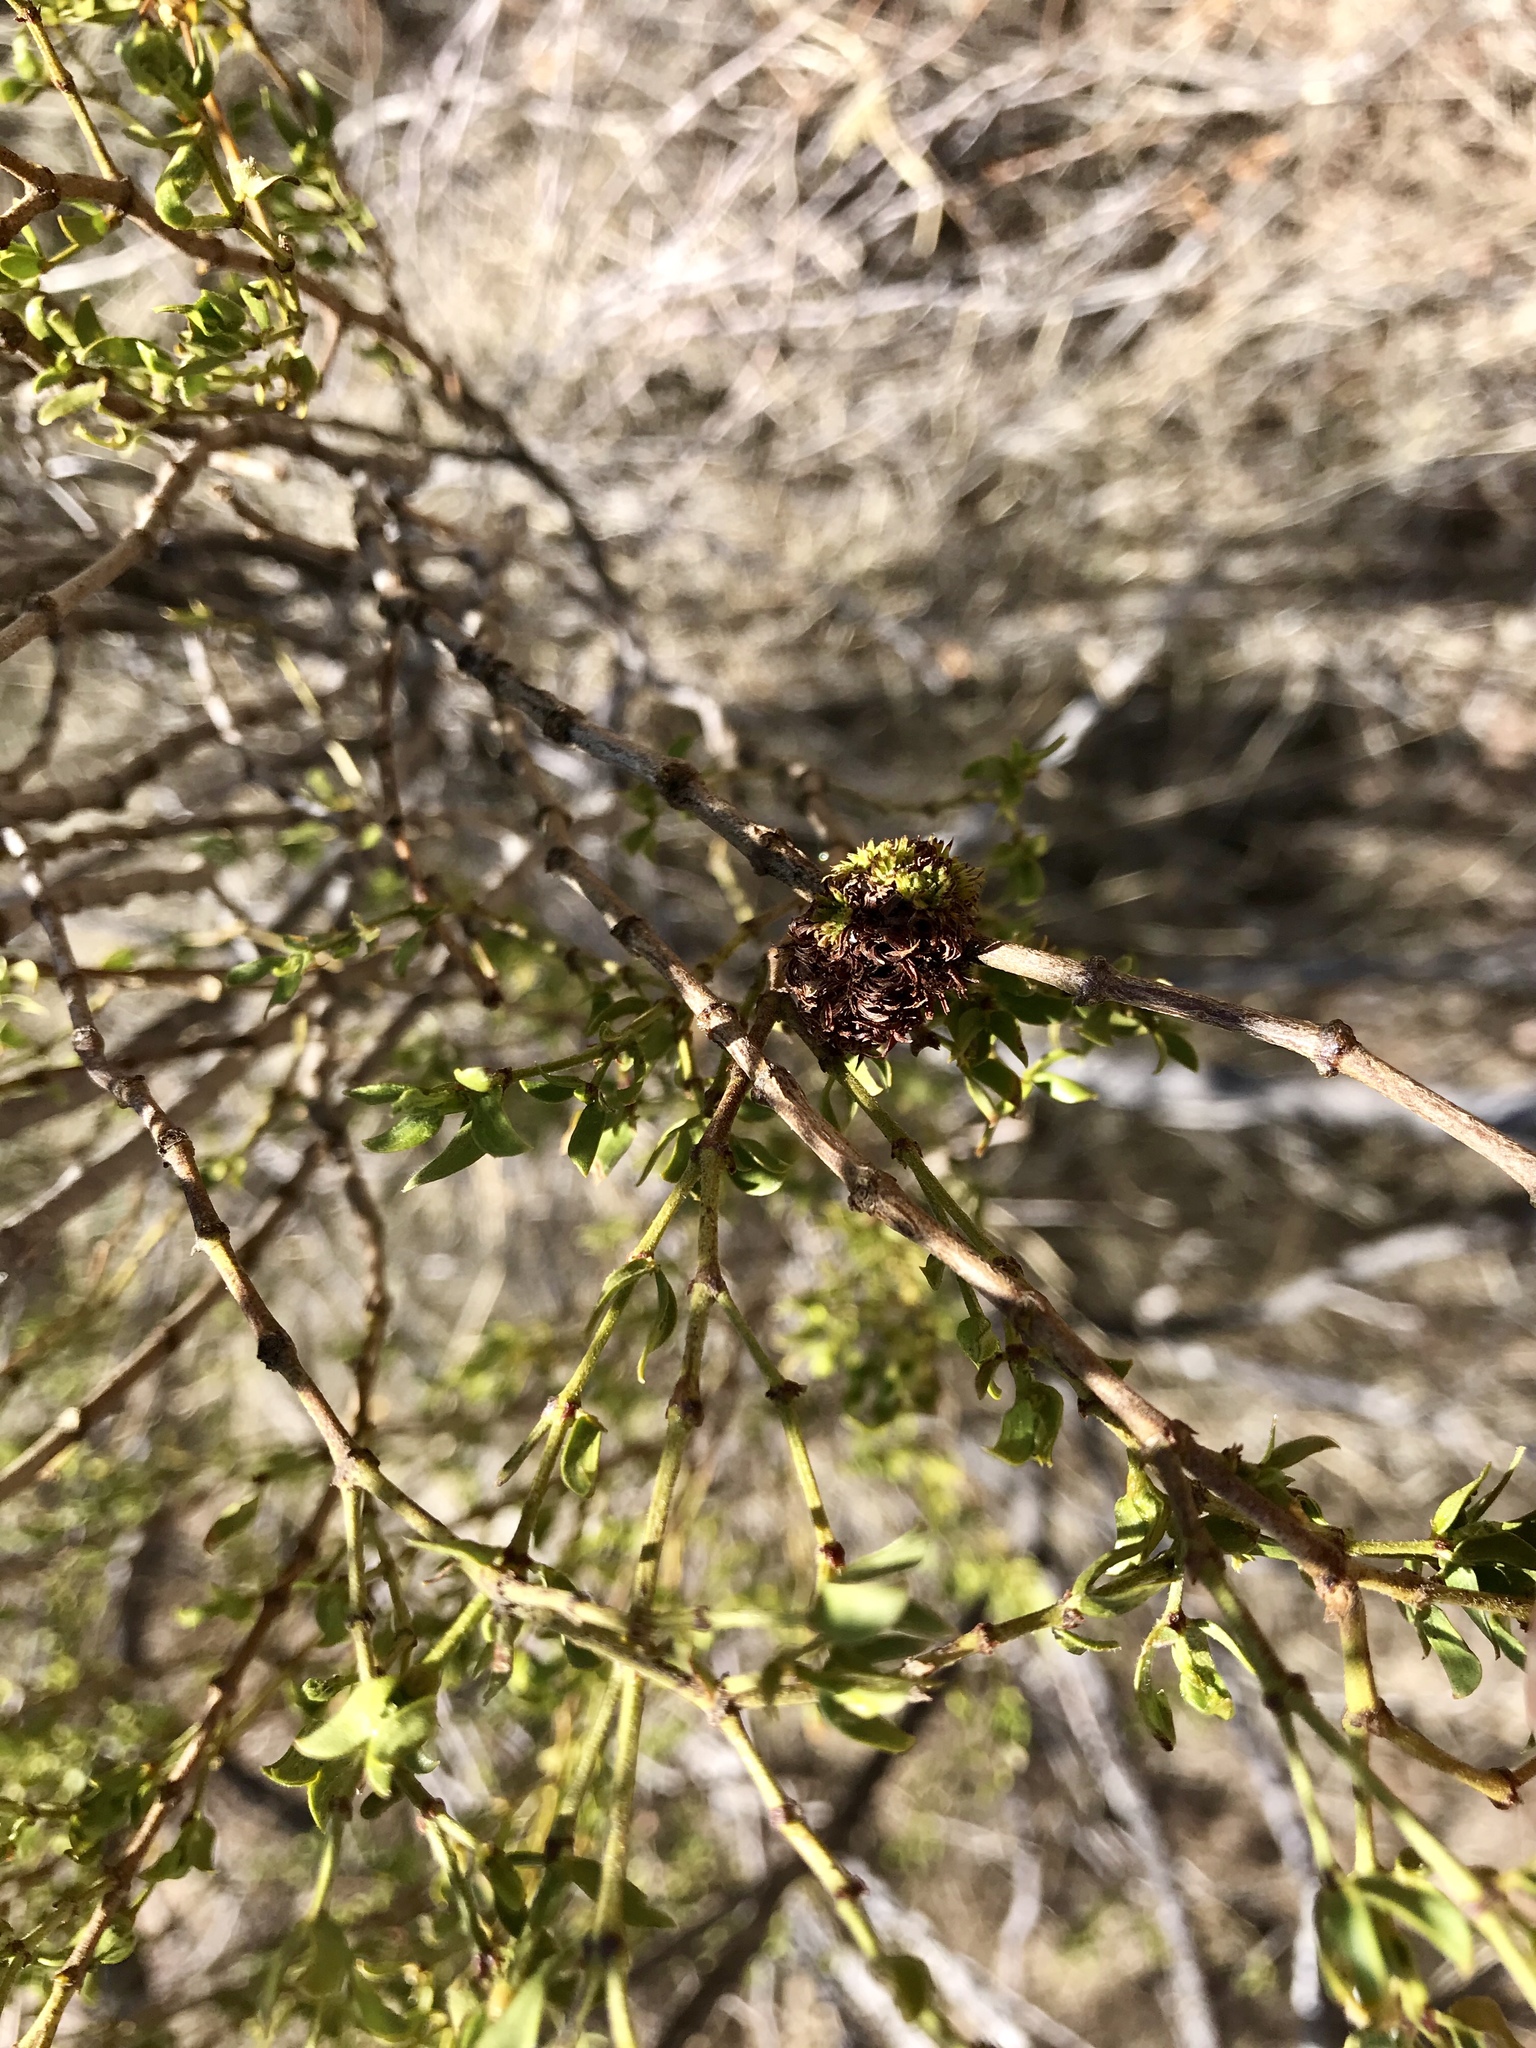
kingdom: Animalia
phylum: Arthropoda
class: Insecta
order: Diptera
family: Cecidomyiidae
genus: Asphondylia
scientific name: Asphondylia auripila
